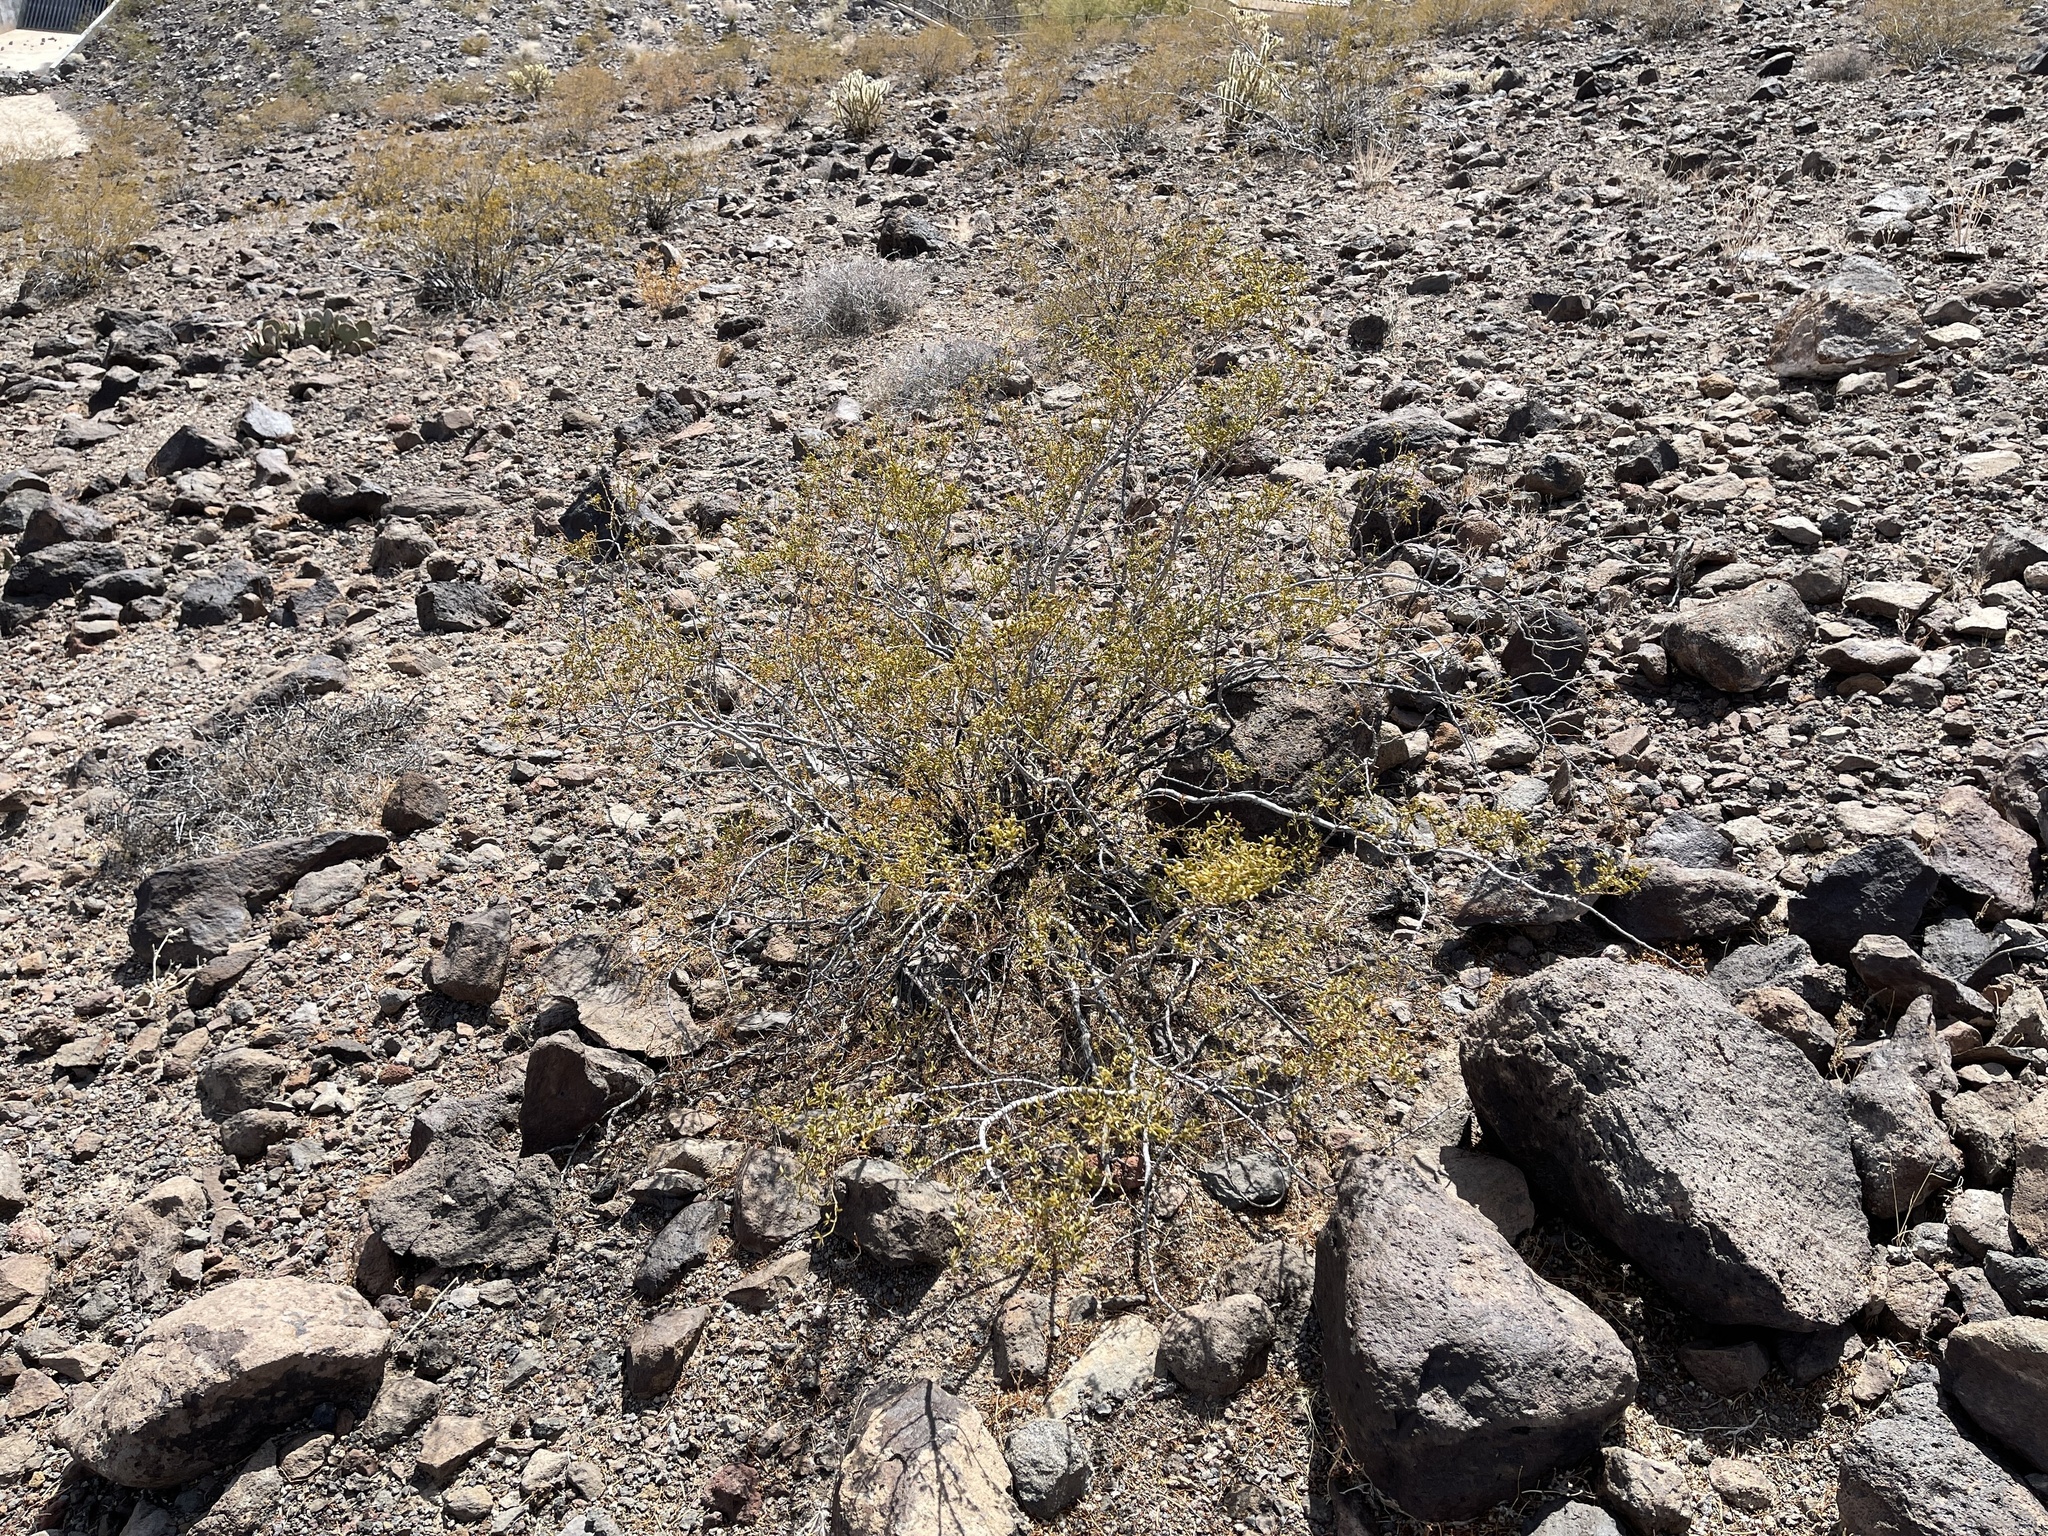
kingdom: Plantae
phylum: Tracheophyta
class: Magnoliopsida
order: Zygophyllales
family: Zygophyllaceae
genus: Larrea
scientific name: Larrea tridentata
